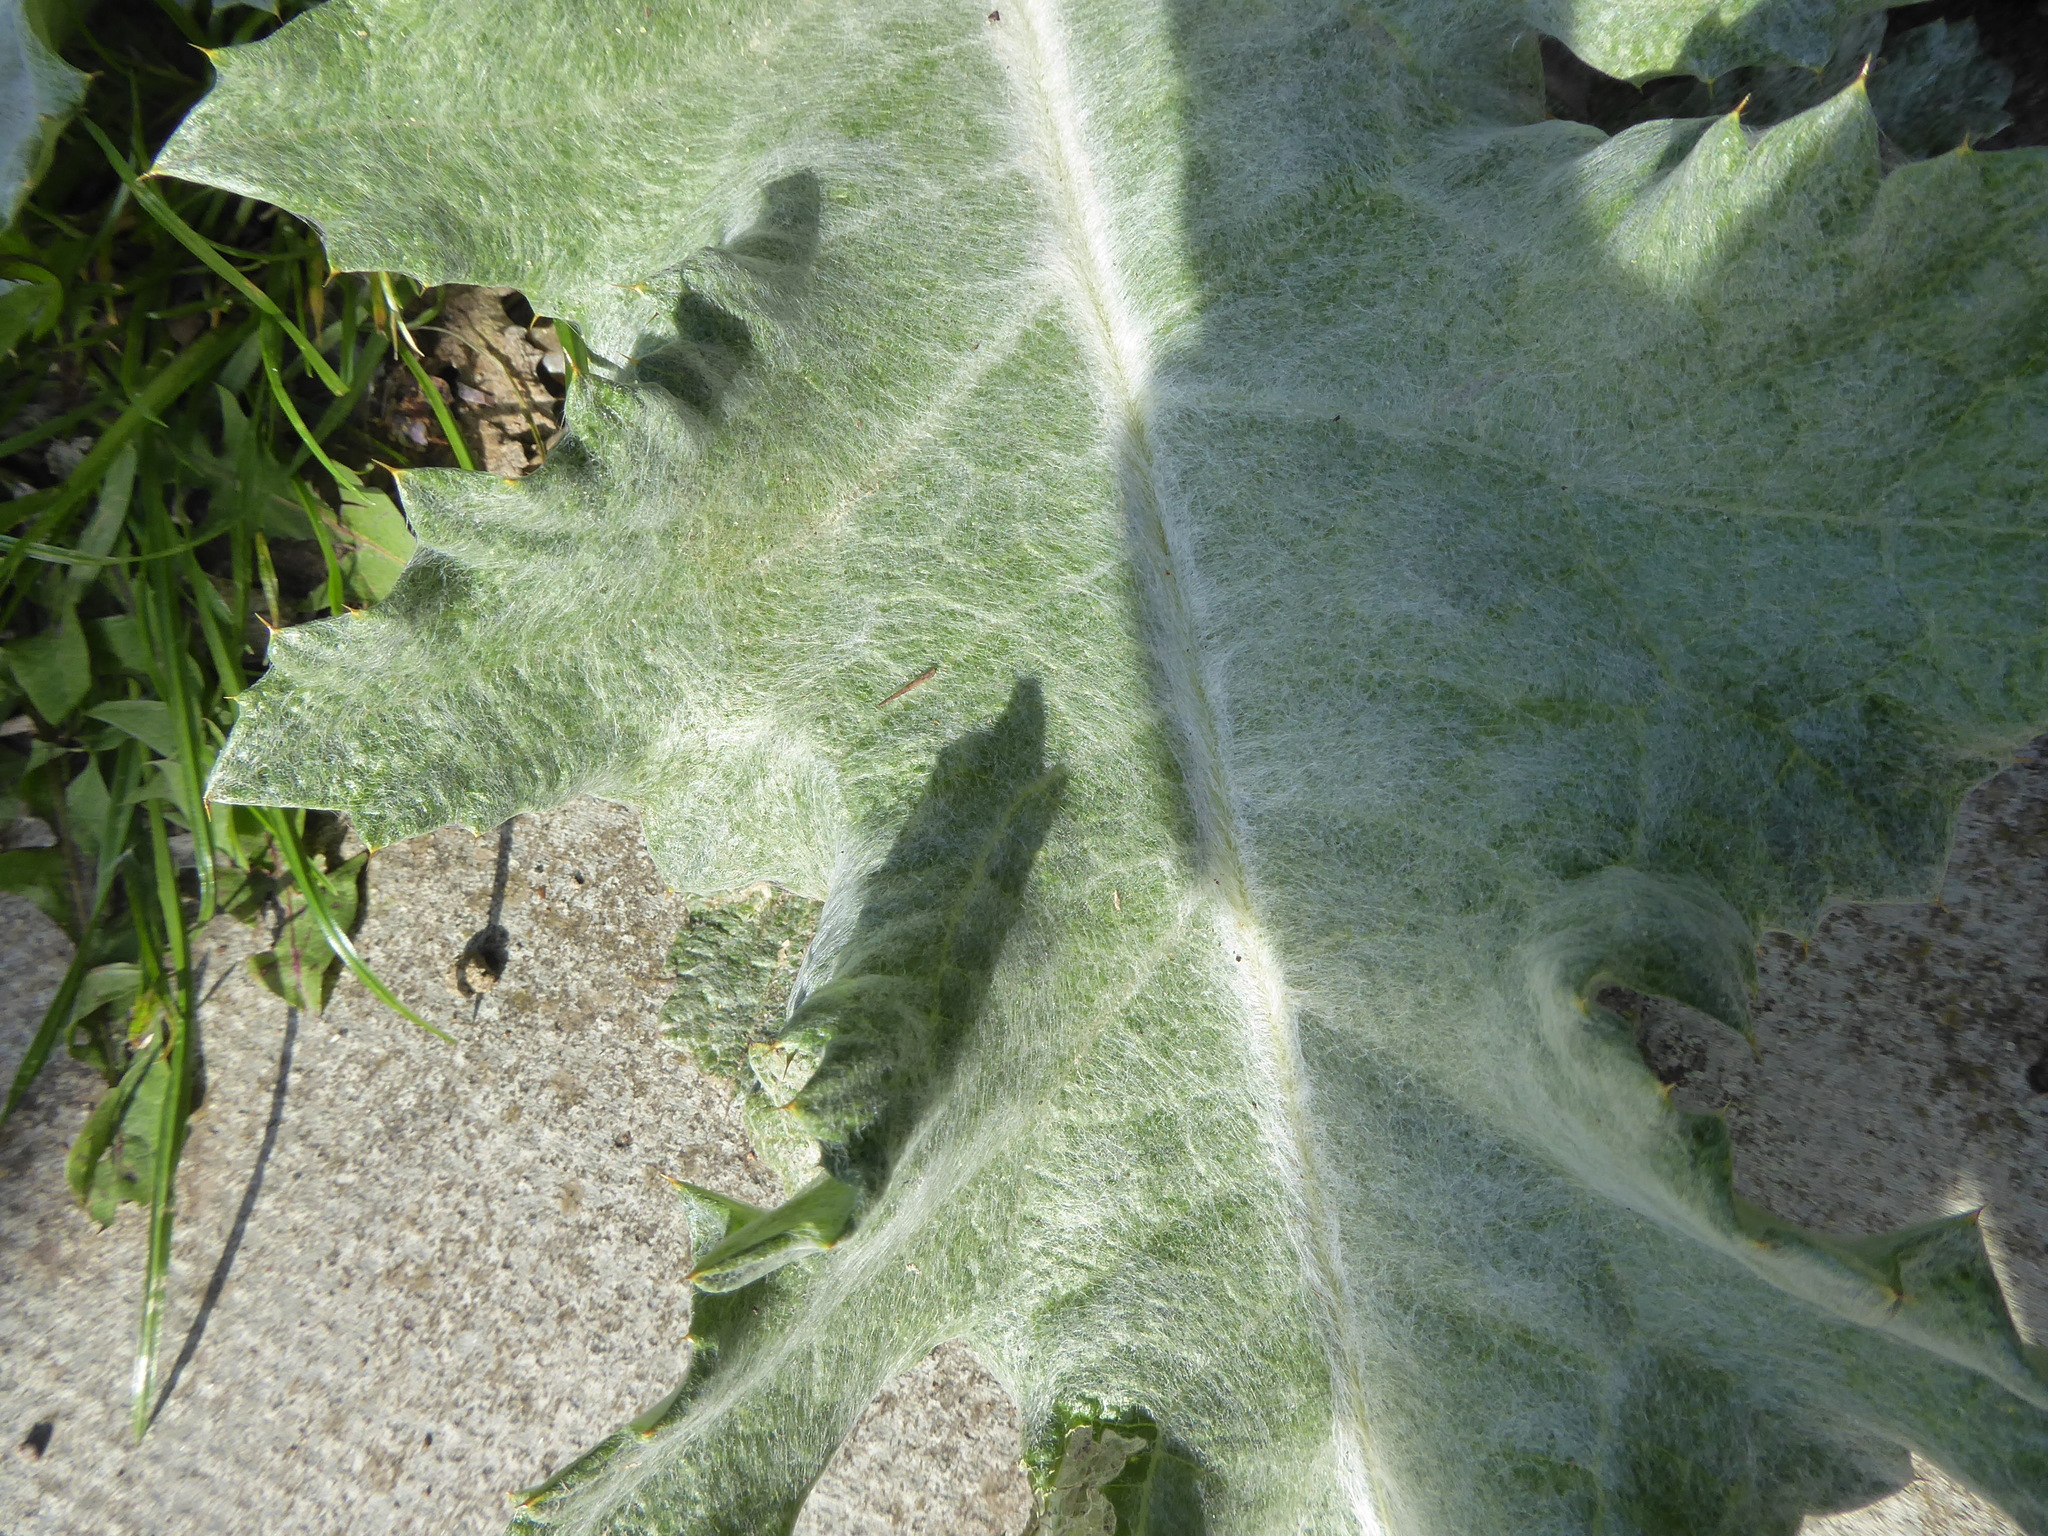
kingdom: Plantae
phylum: Tracheophyta
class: Magnoliopsida
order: Asterales
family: Asteraceae
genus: Onopordum
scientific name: Onopordum acanthium
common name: Scotch thistle
